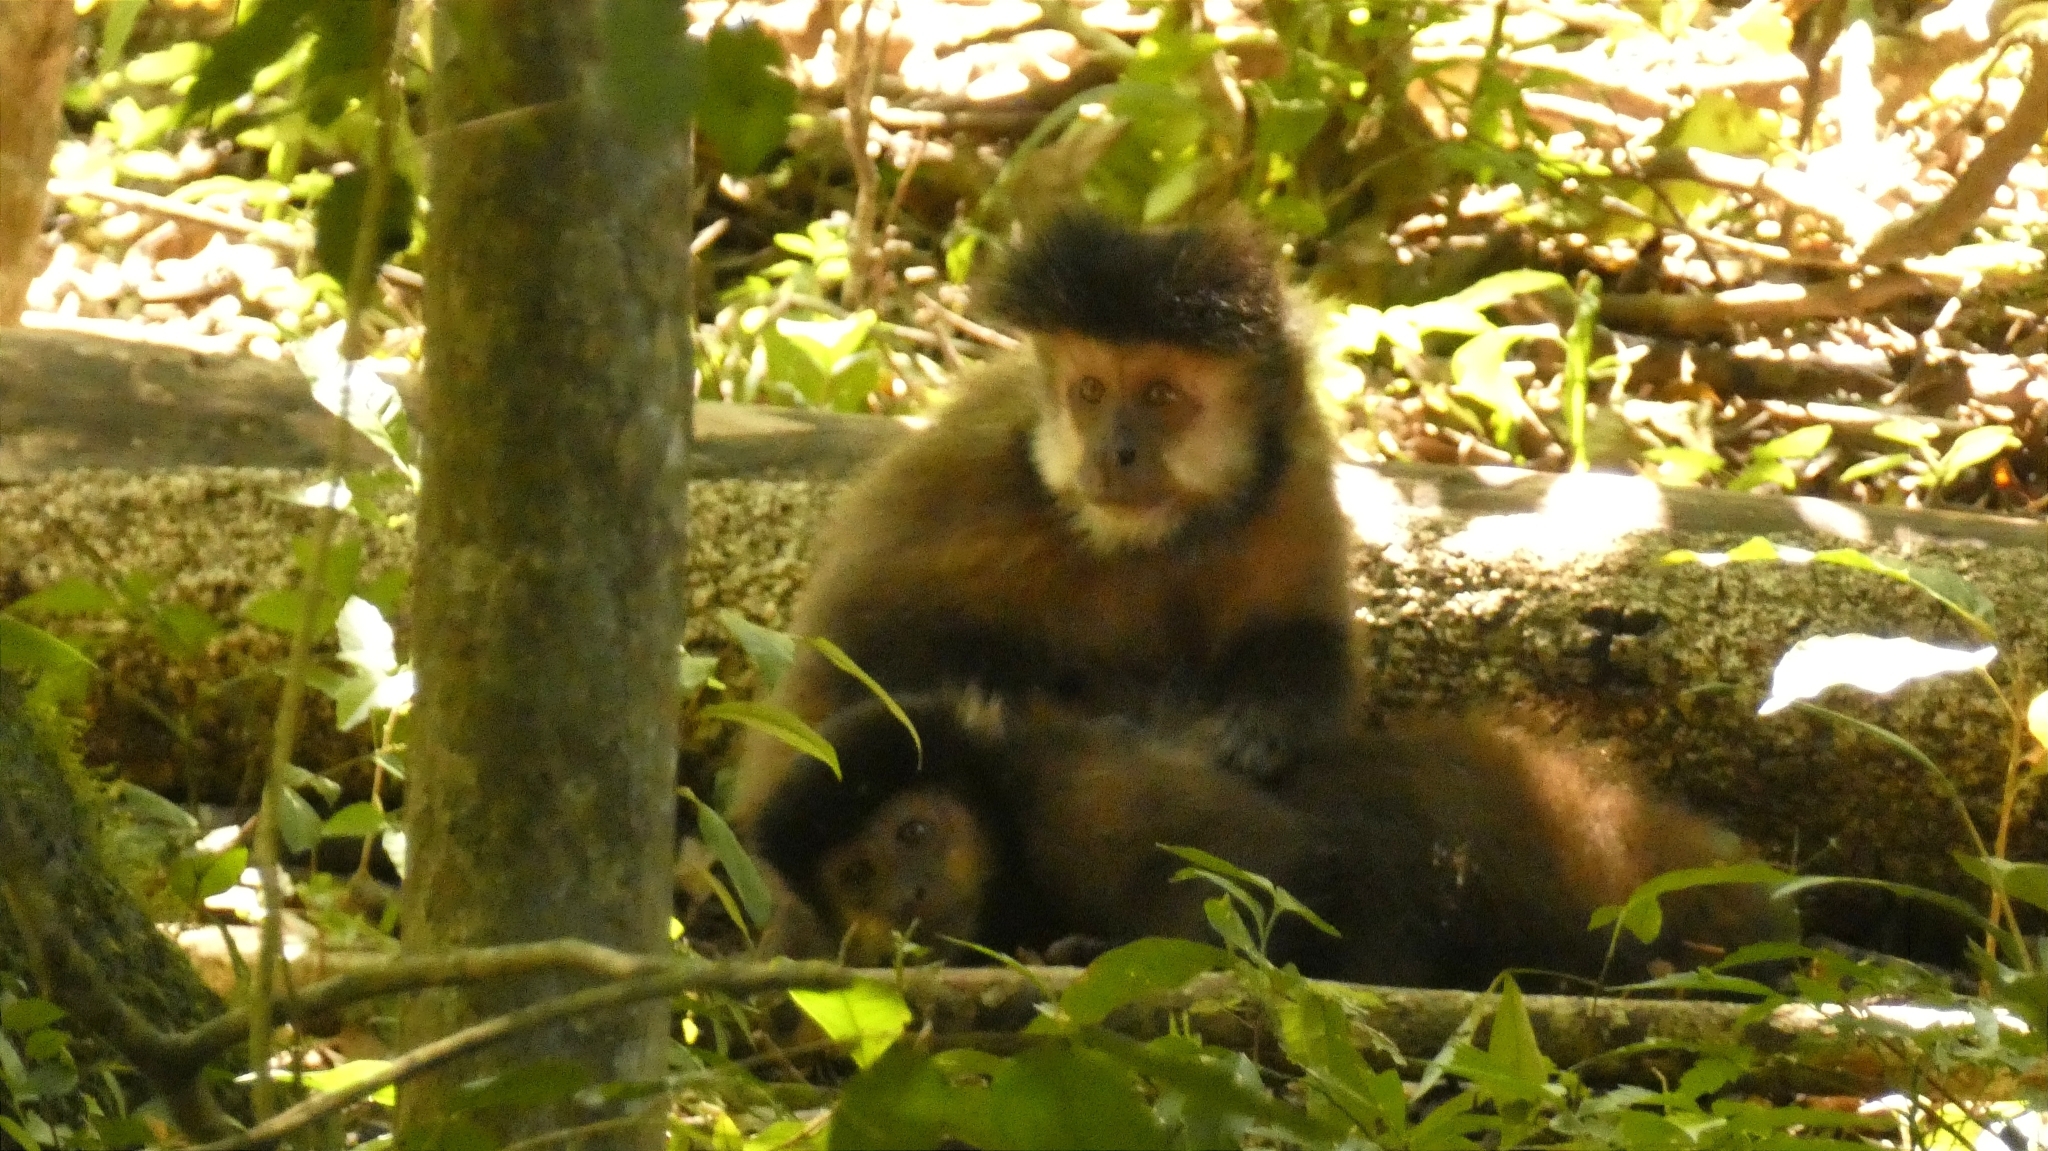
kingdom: Animalia
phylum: Chordata
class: Mammalia
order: Primates
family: Cebidae
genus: Sapajus
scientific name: Sapajus nigritus
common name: Black capuchin
